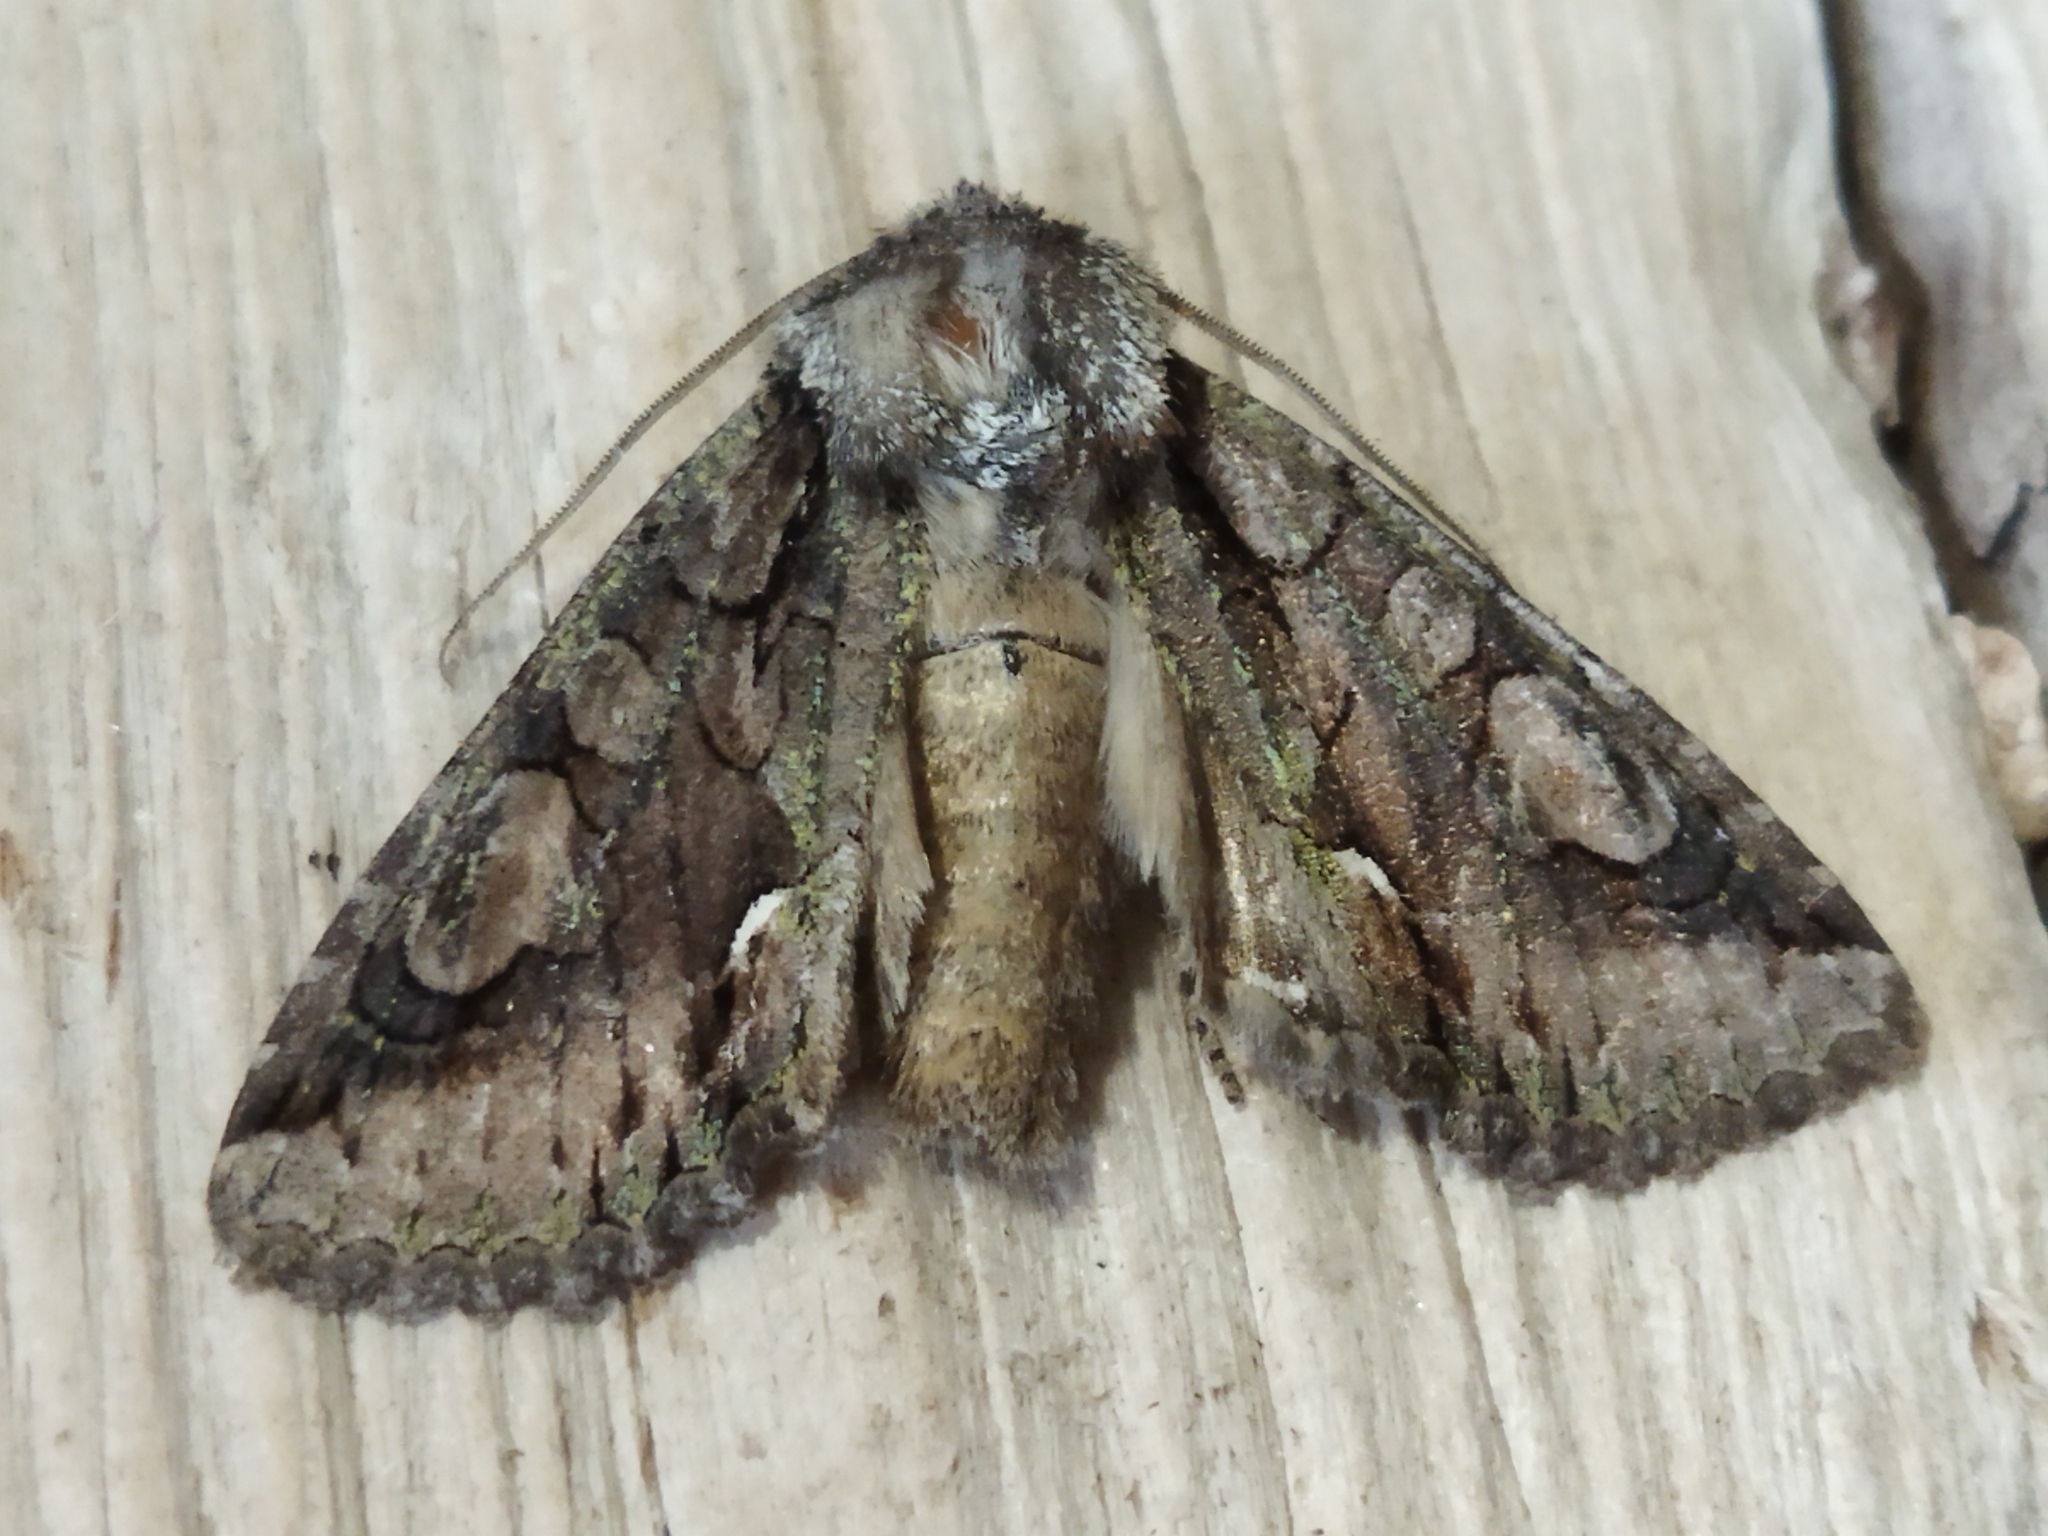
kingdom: Animalia
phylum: Arthropoda
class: Insecta
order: Lepidoptera
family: Noctuidae
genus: Allophyes
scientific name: Allophyes oxyacanthae
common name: Green-brindled crescent
